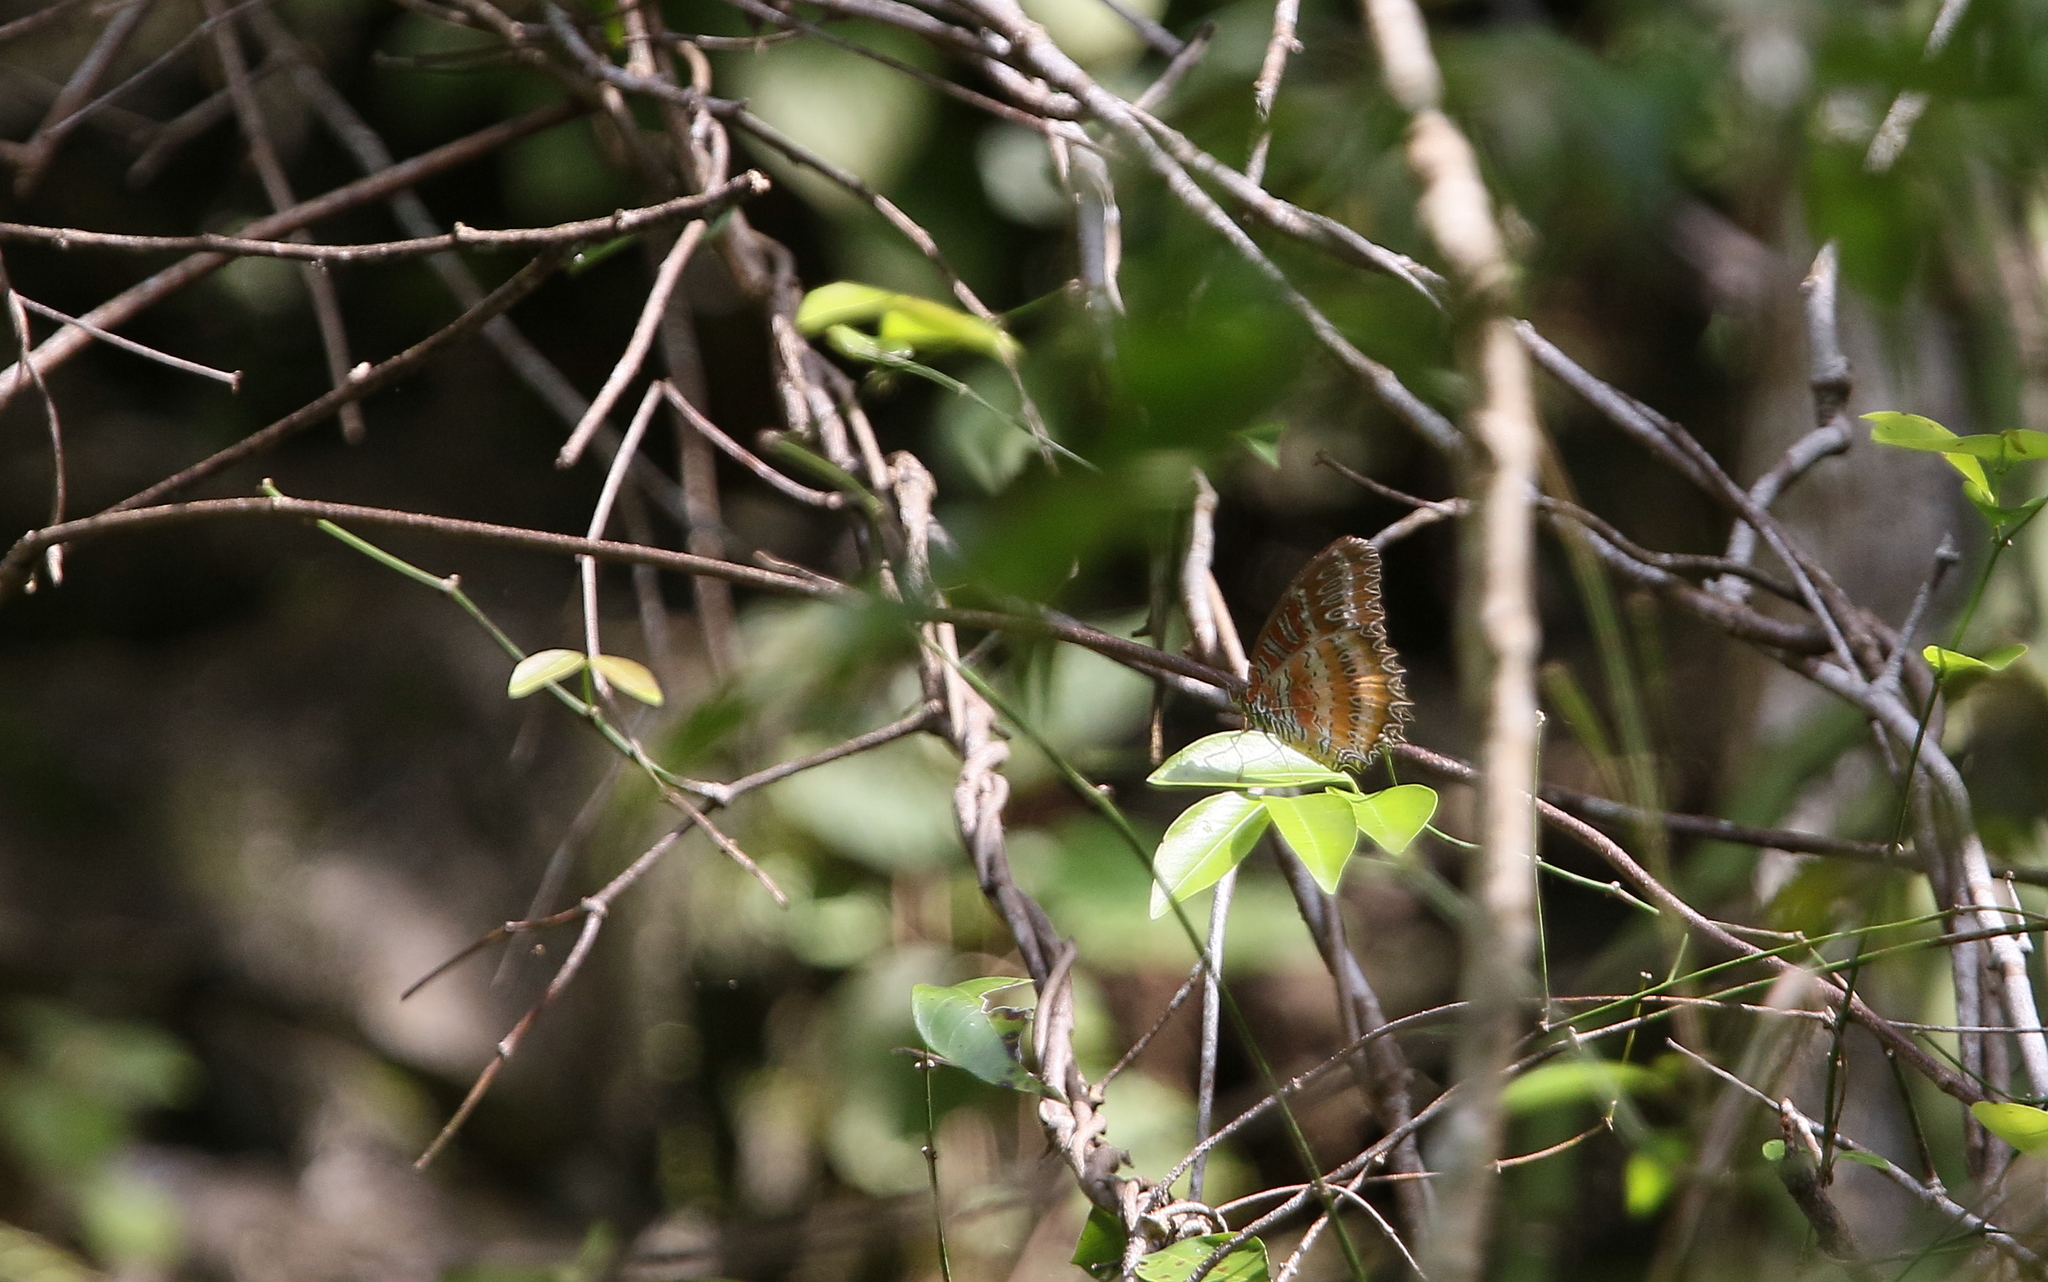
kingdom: Animalia
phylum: Arthropoda
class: Insecta
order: Lepidoptera
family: Nymphalidae
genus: Cethosia
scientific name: Cethosia biblis
